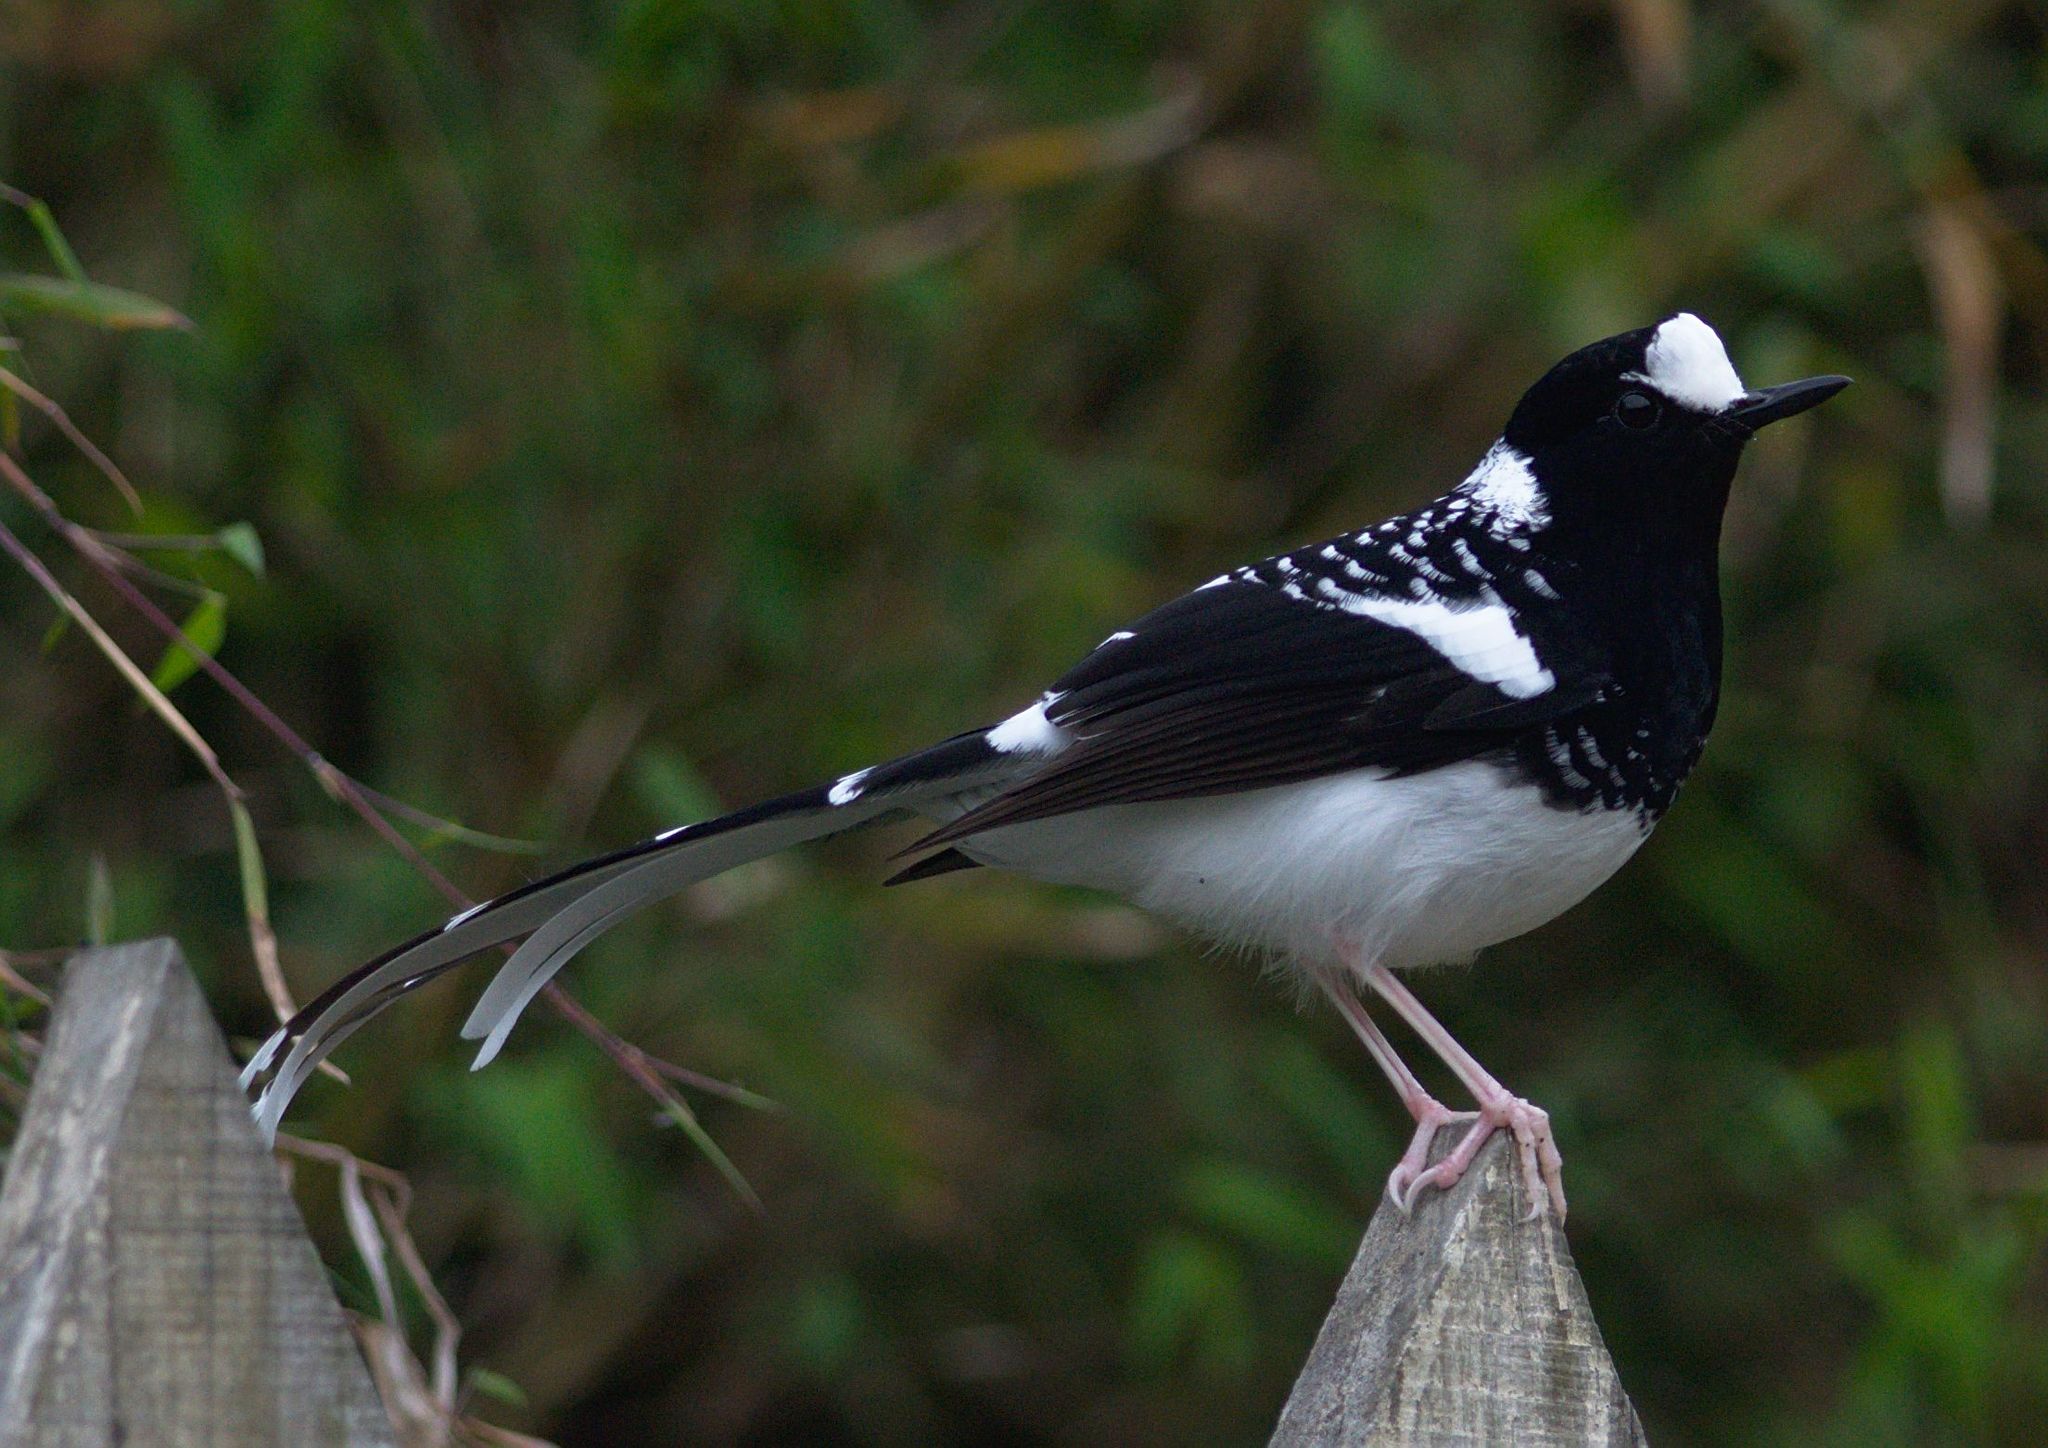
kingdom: Animalia
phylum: Chordata
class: Aves
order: Passeriformes
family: Muscicapidae
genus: Enicurus
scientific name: Enicurus maculatus
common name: Spotted forktail
